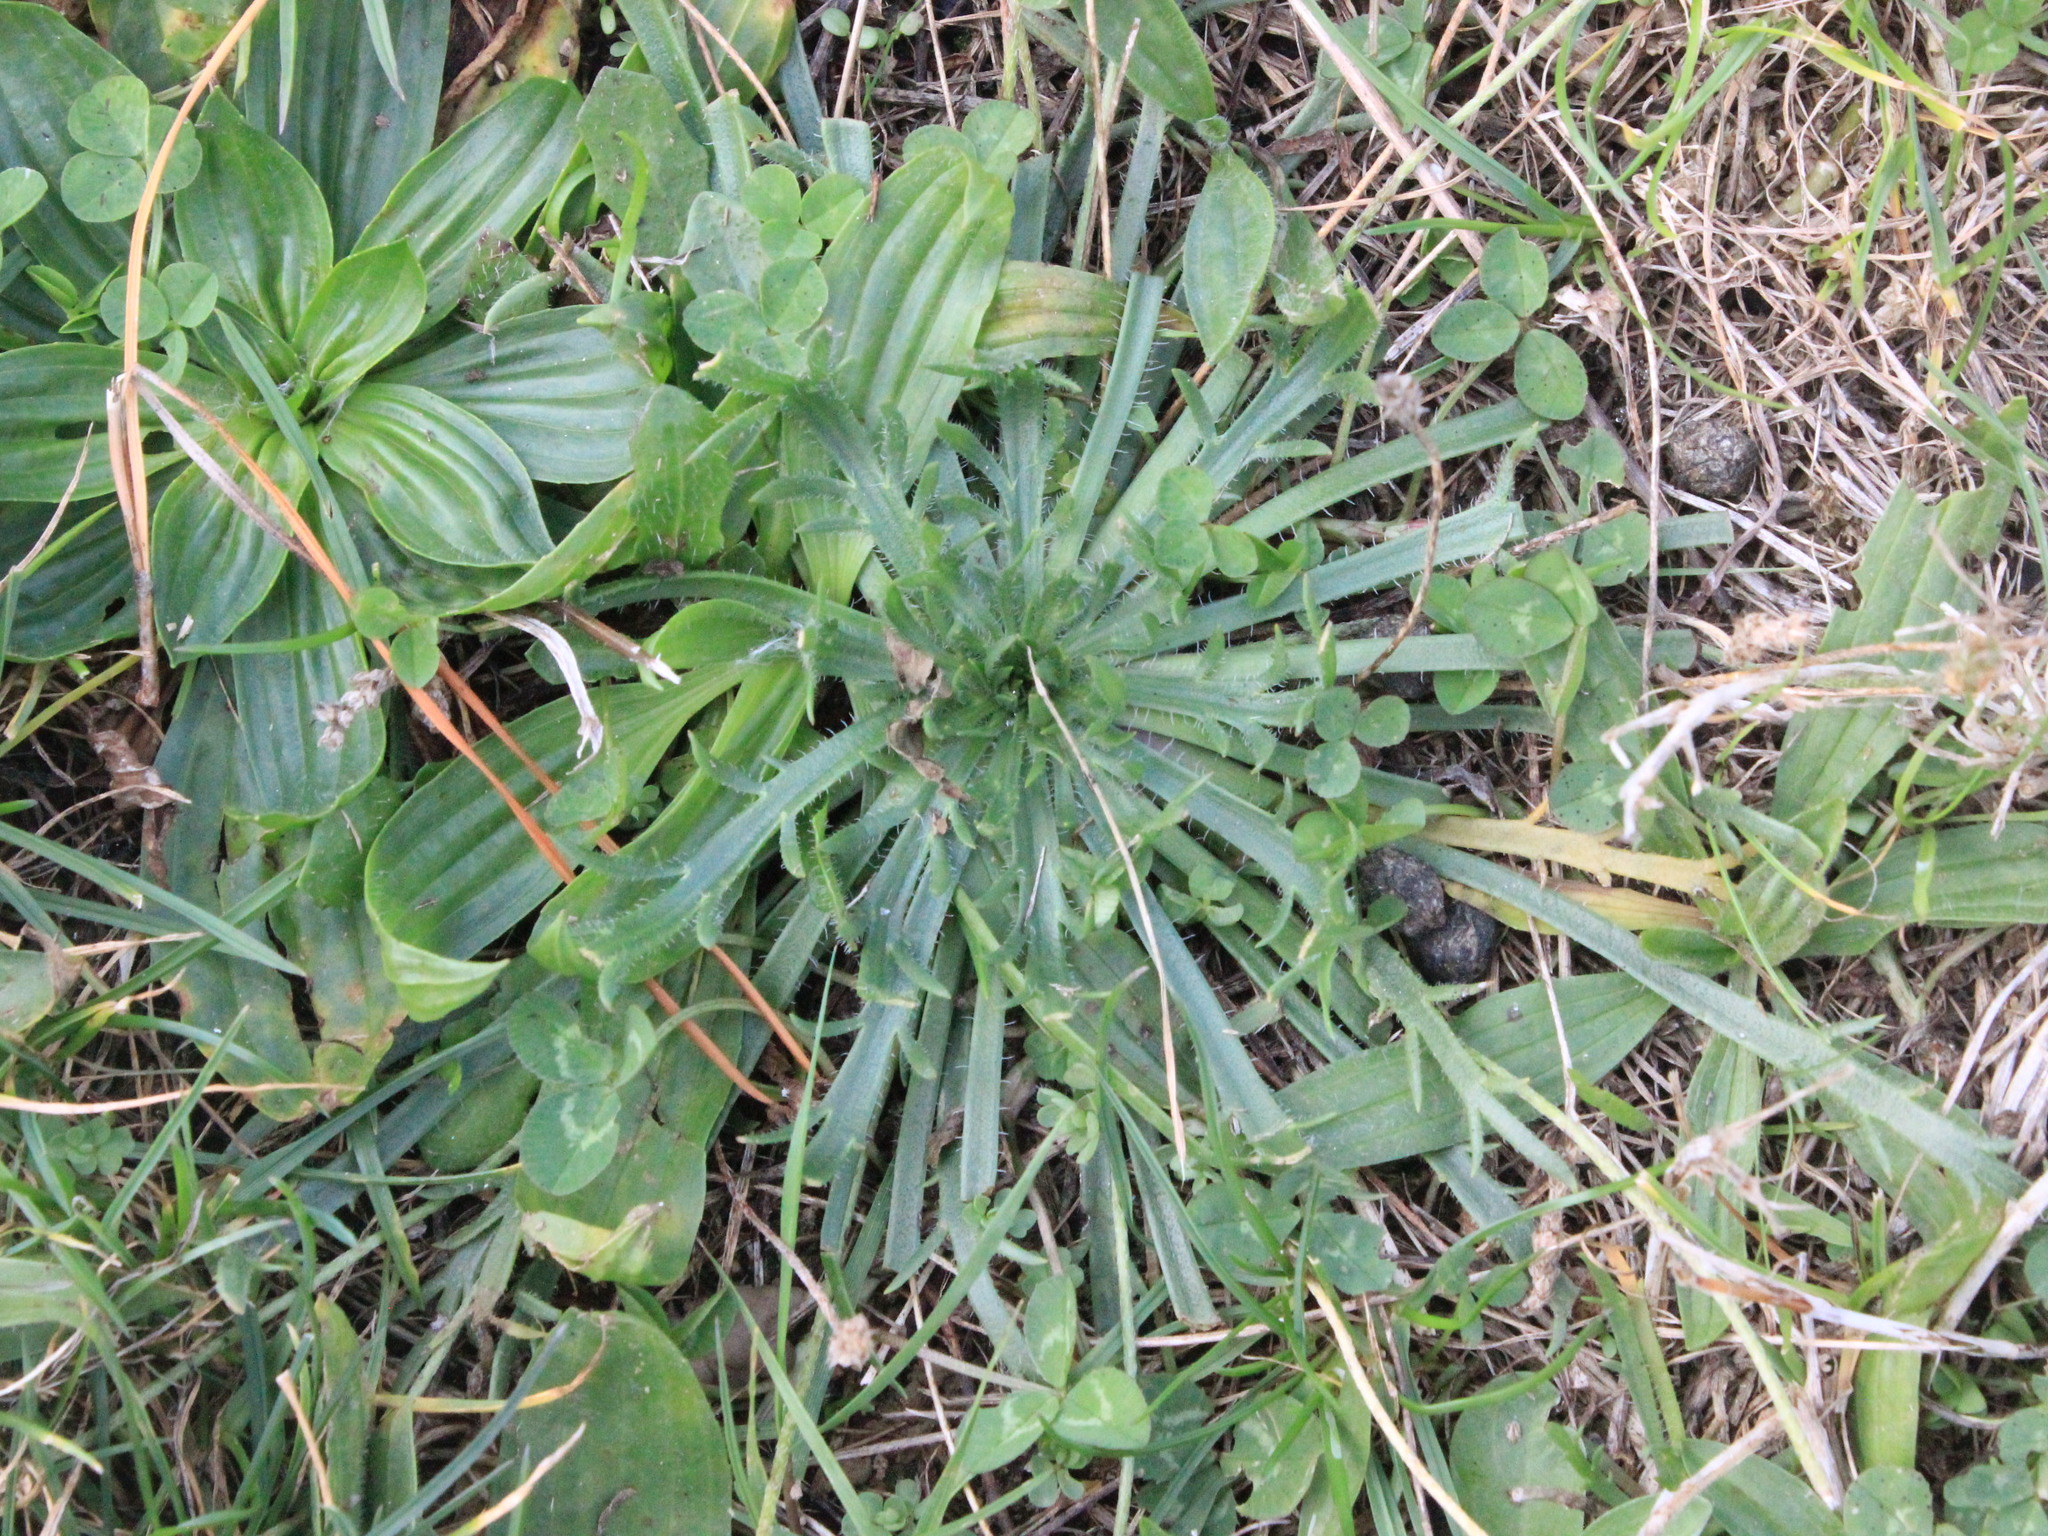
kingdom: Plantae
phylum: Tracheophyta
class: Magnoliopsida
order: Lamiales
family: Plantaginaceae
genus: Plantago
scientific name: Plantago coronopus
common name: Buck's-horn plantain
